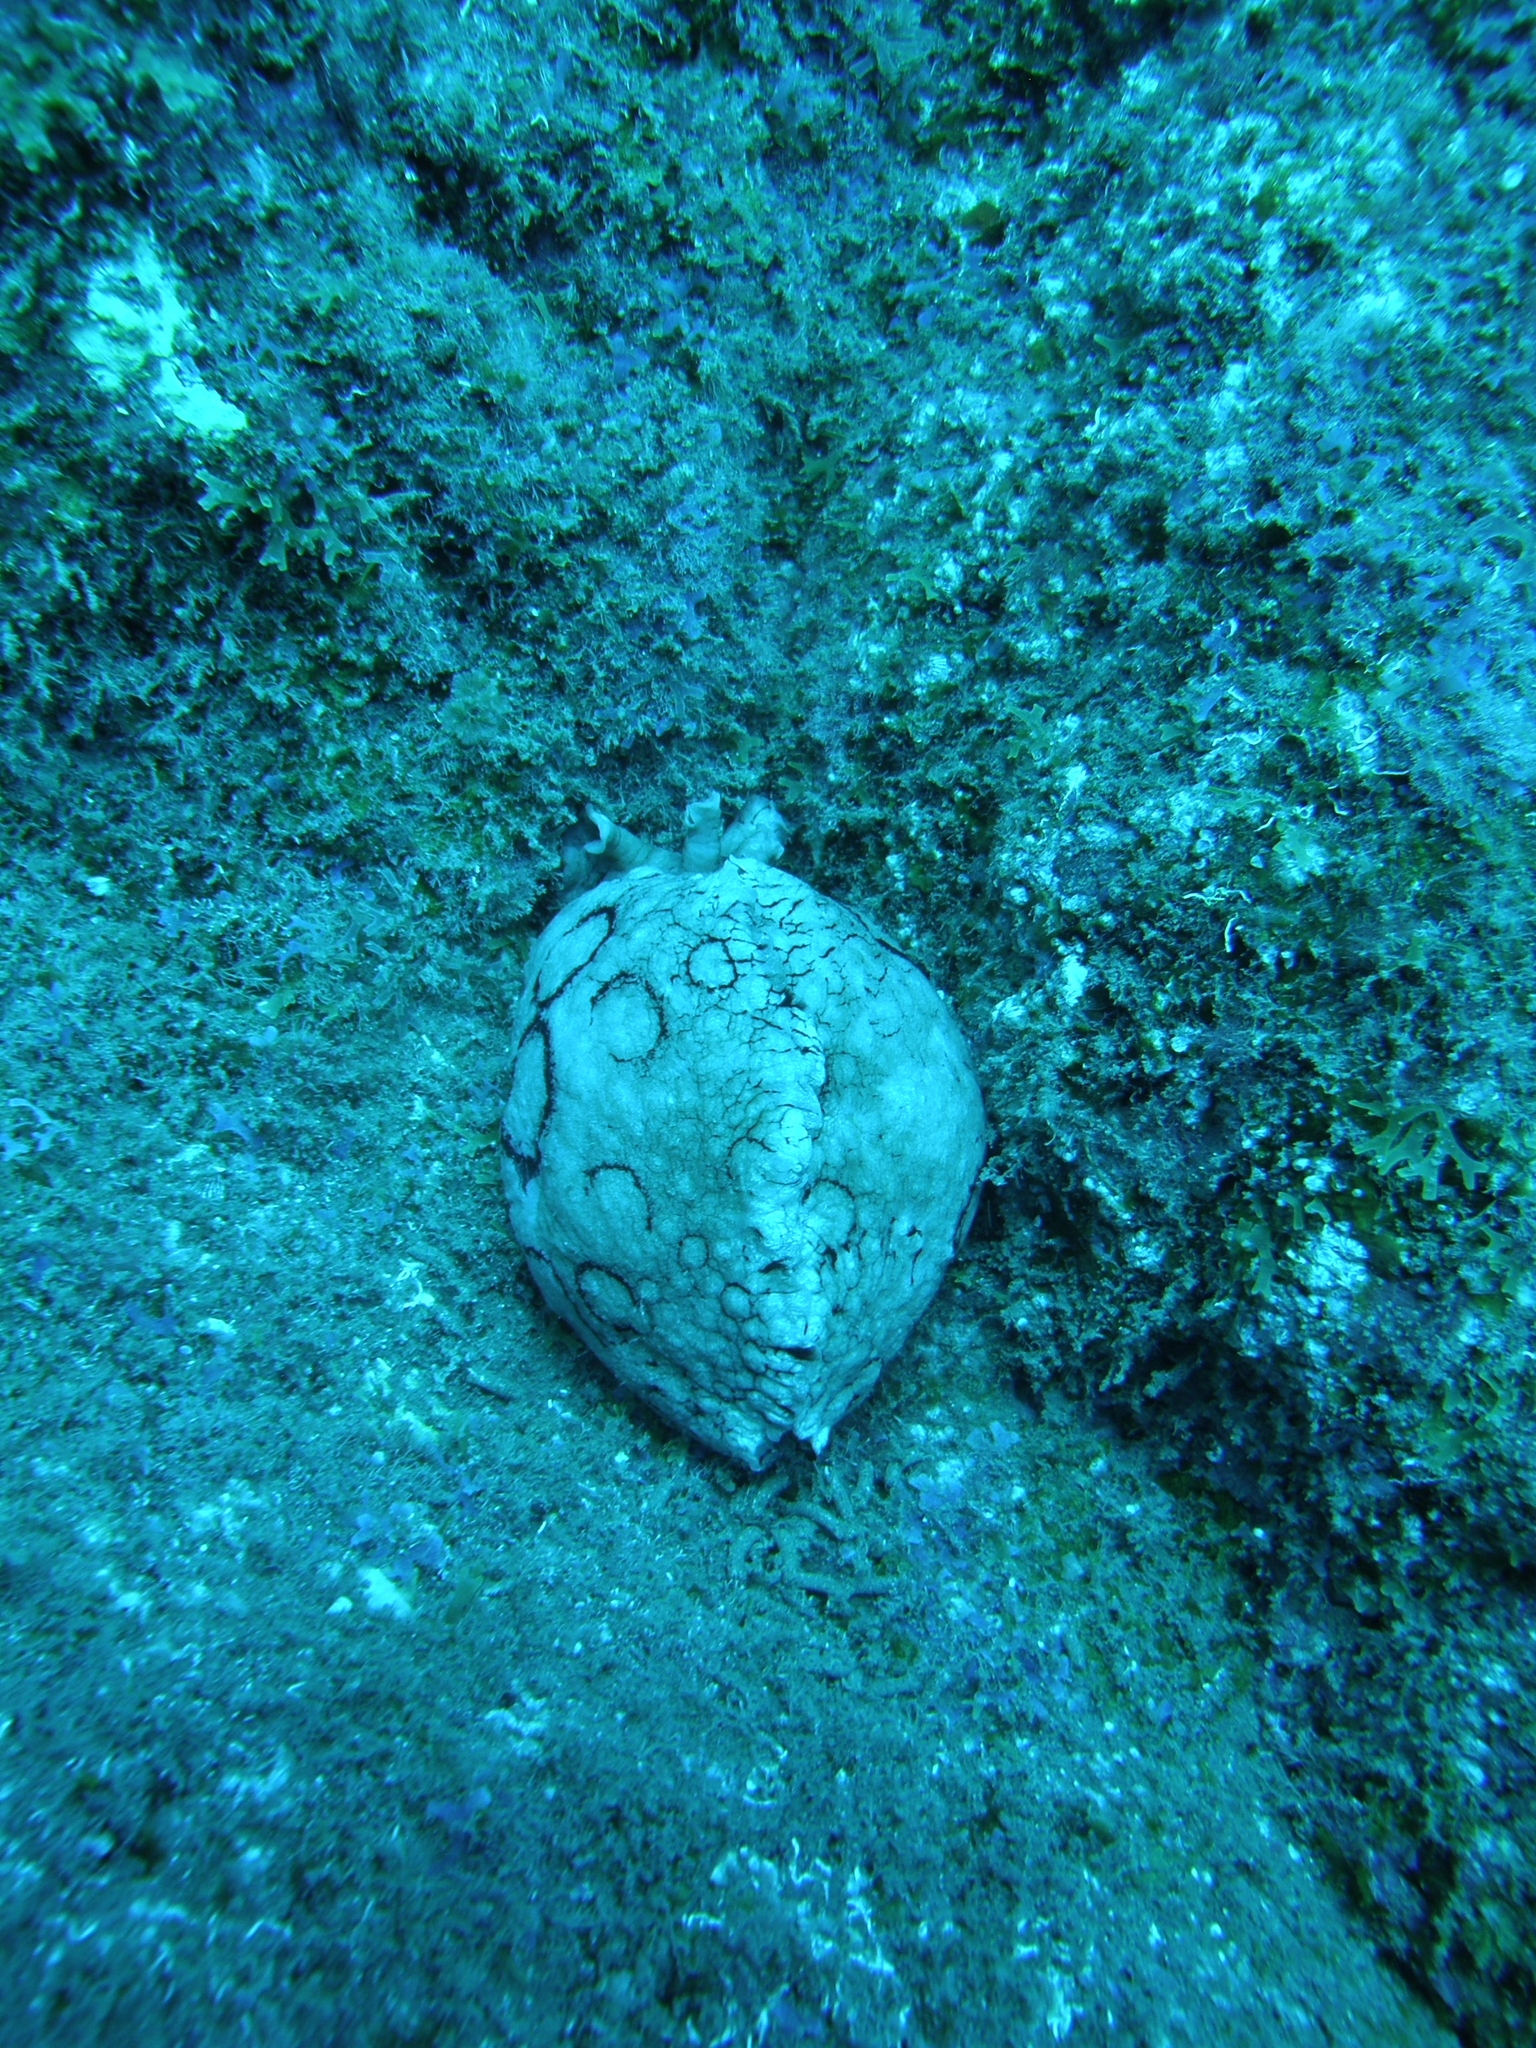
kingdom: Animalia
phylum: Mollusca
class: Gastropoda
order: Aplysiida
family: Aplysiidae
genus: Aplysia
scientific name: Aplysia dactylomela
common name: Large-spotted sea hare
